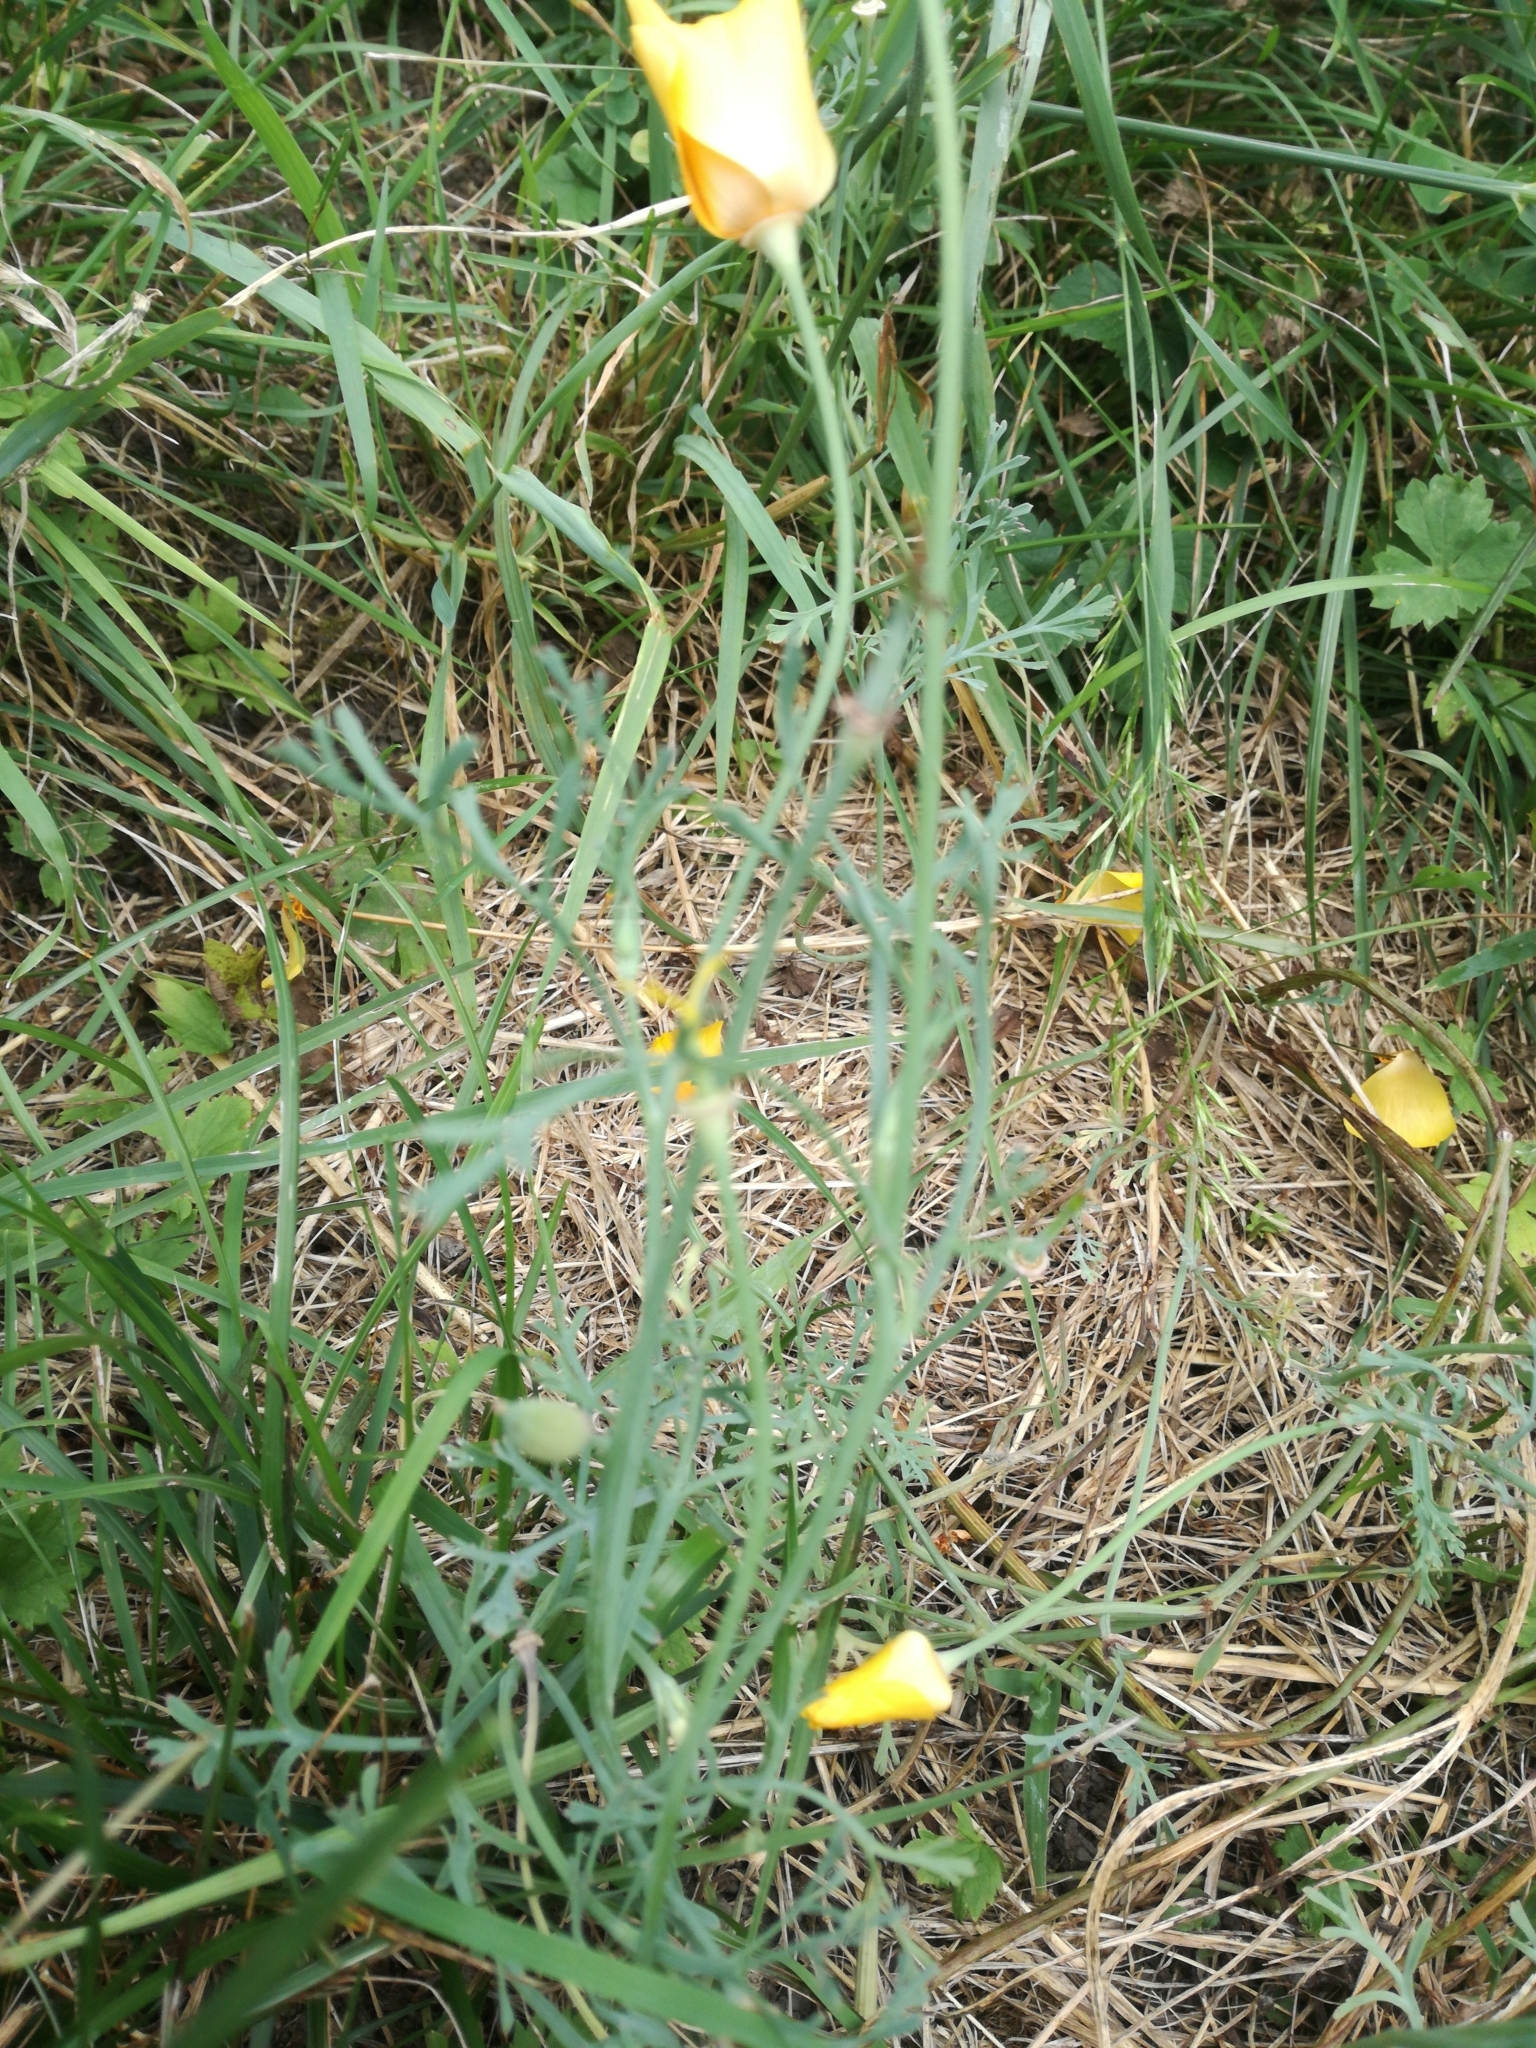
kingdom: Plantae
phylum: Tracheophyta
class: Magnoliopsida
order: Ranunculales
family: Papaveraceae
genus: Eschscholzia
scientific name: Eschscholzia californica
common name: California poppy
